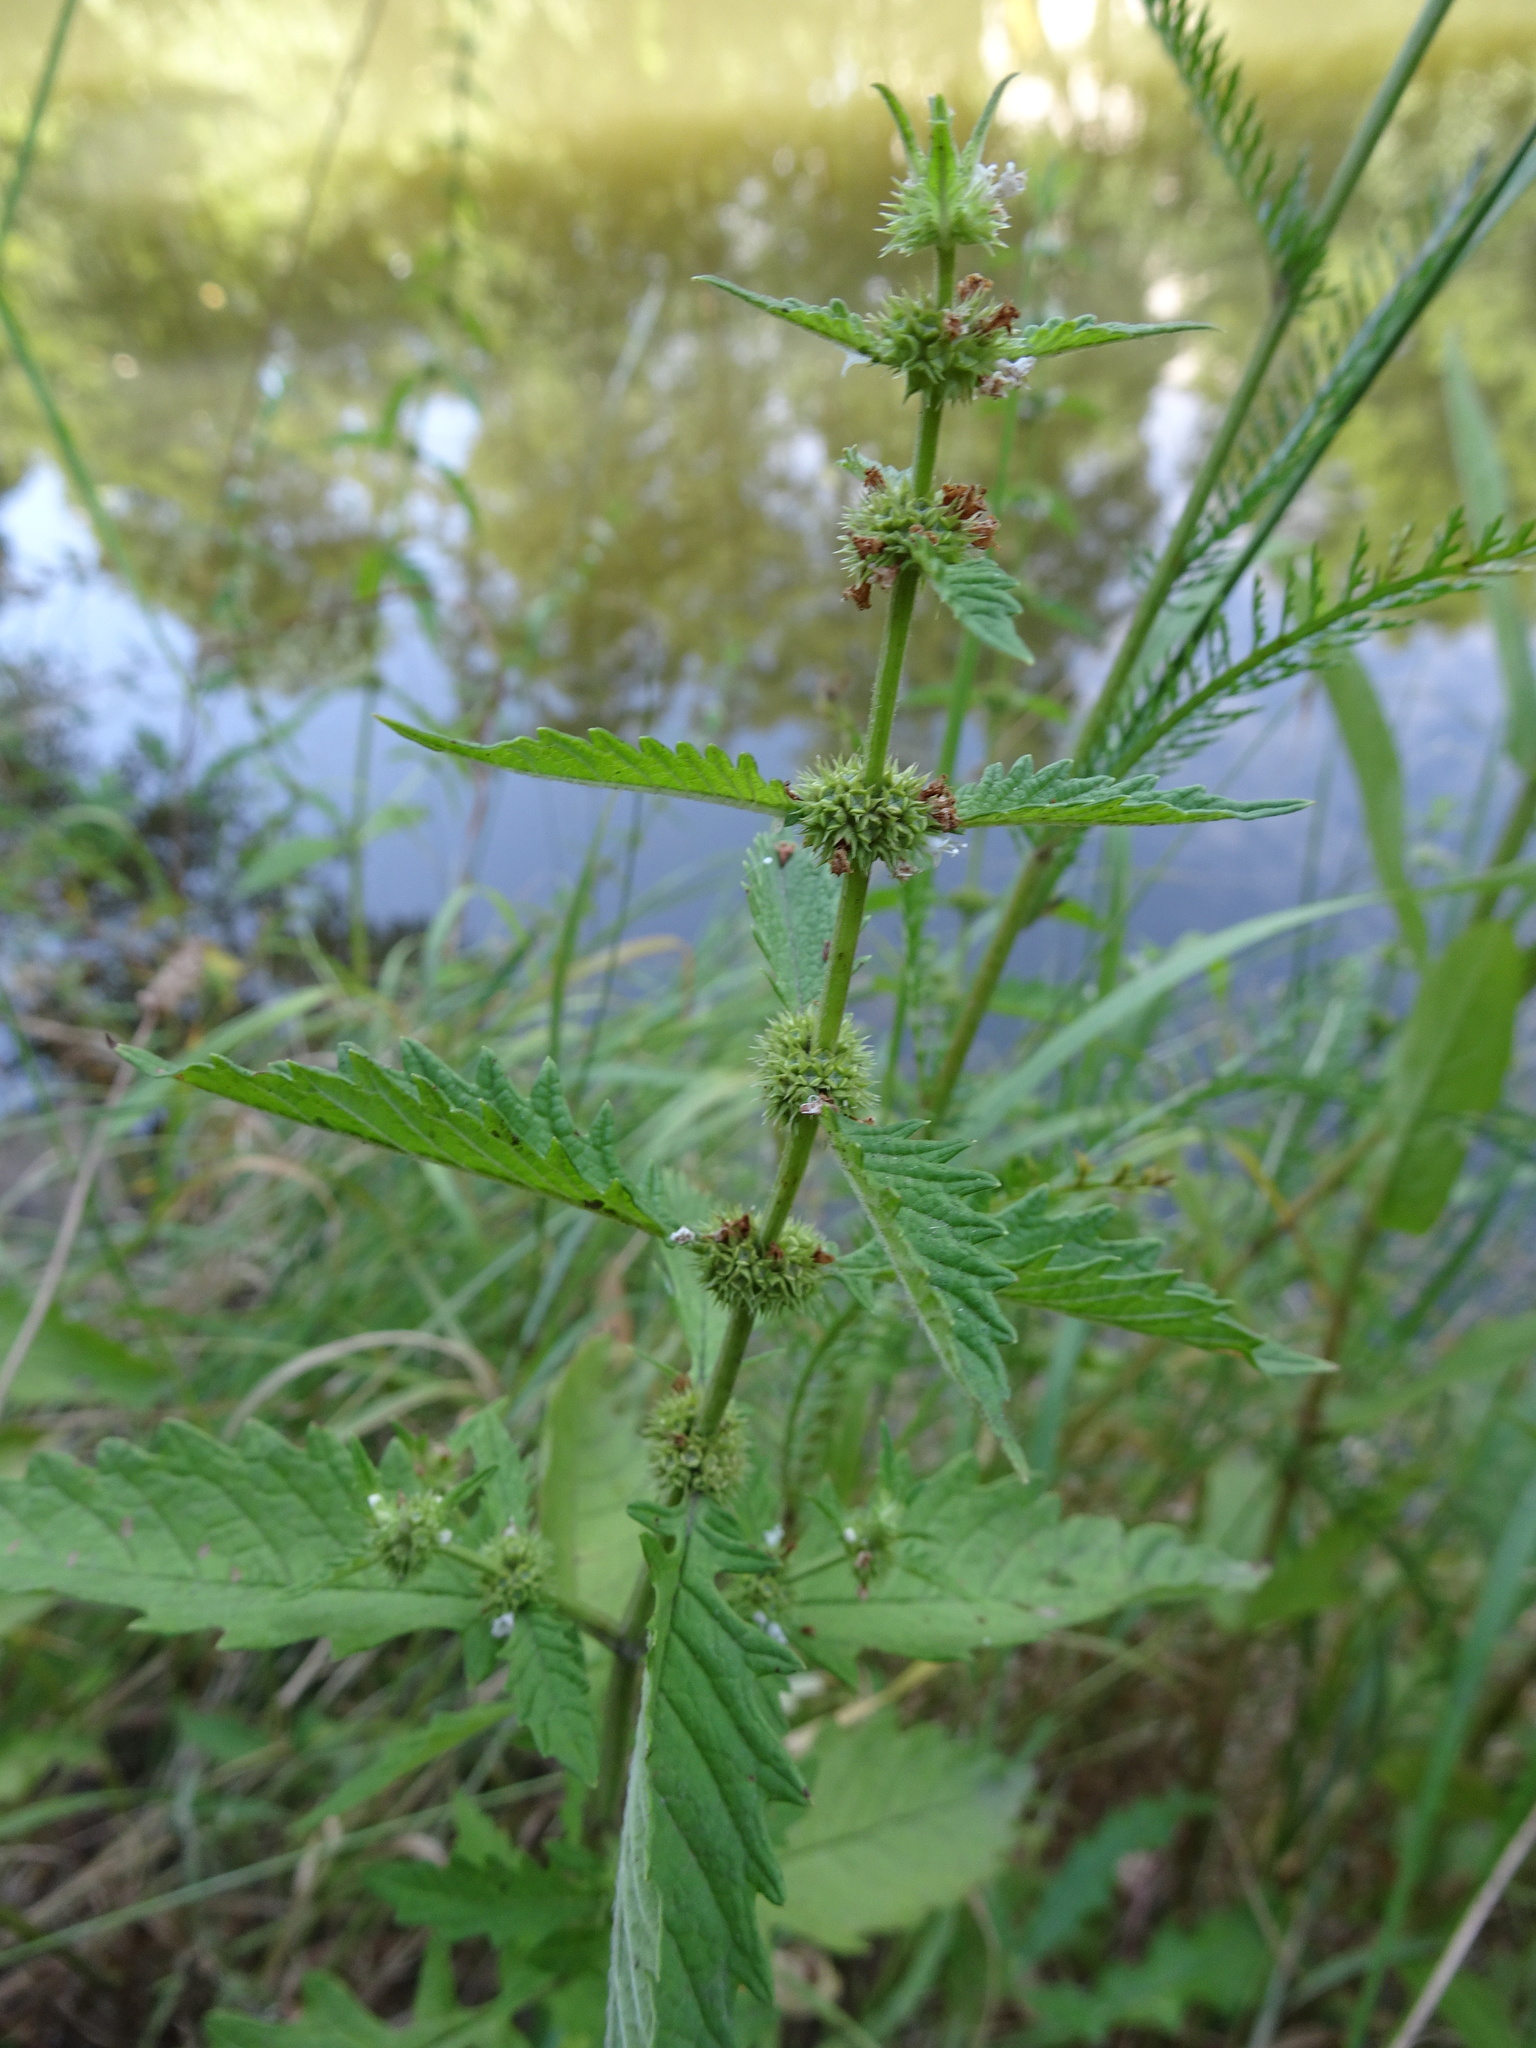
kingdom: Plantae
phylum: Tracheophyta
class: Magnoliopsida
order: Lamiales
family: Lamiaceae
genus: Lycopus
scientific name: Lycopus europaeus
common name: European bugleweed
